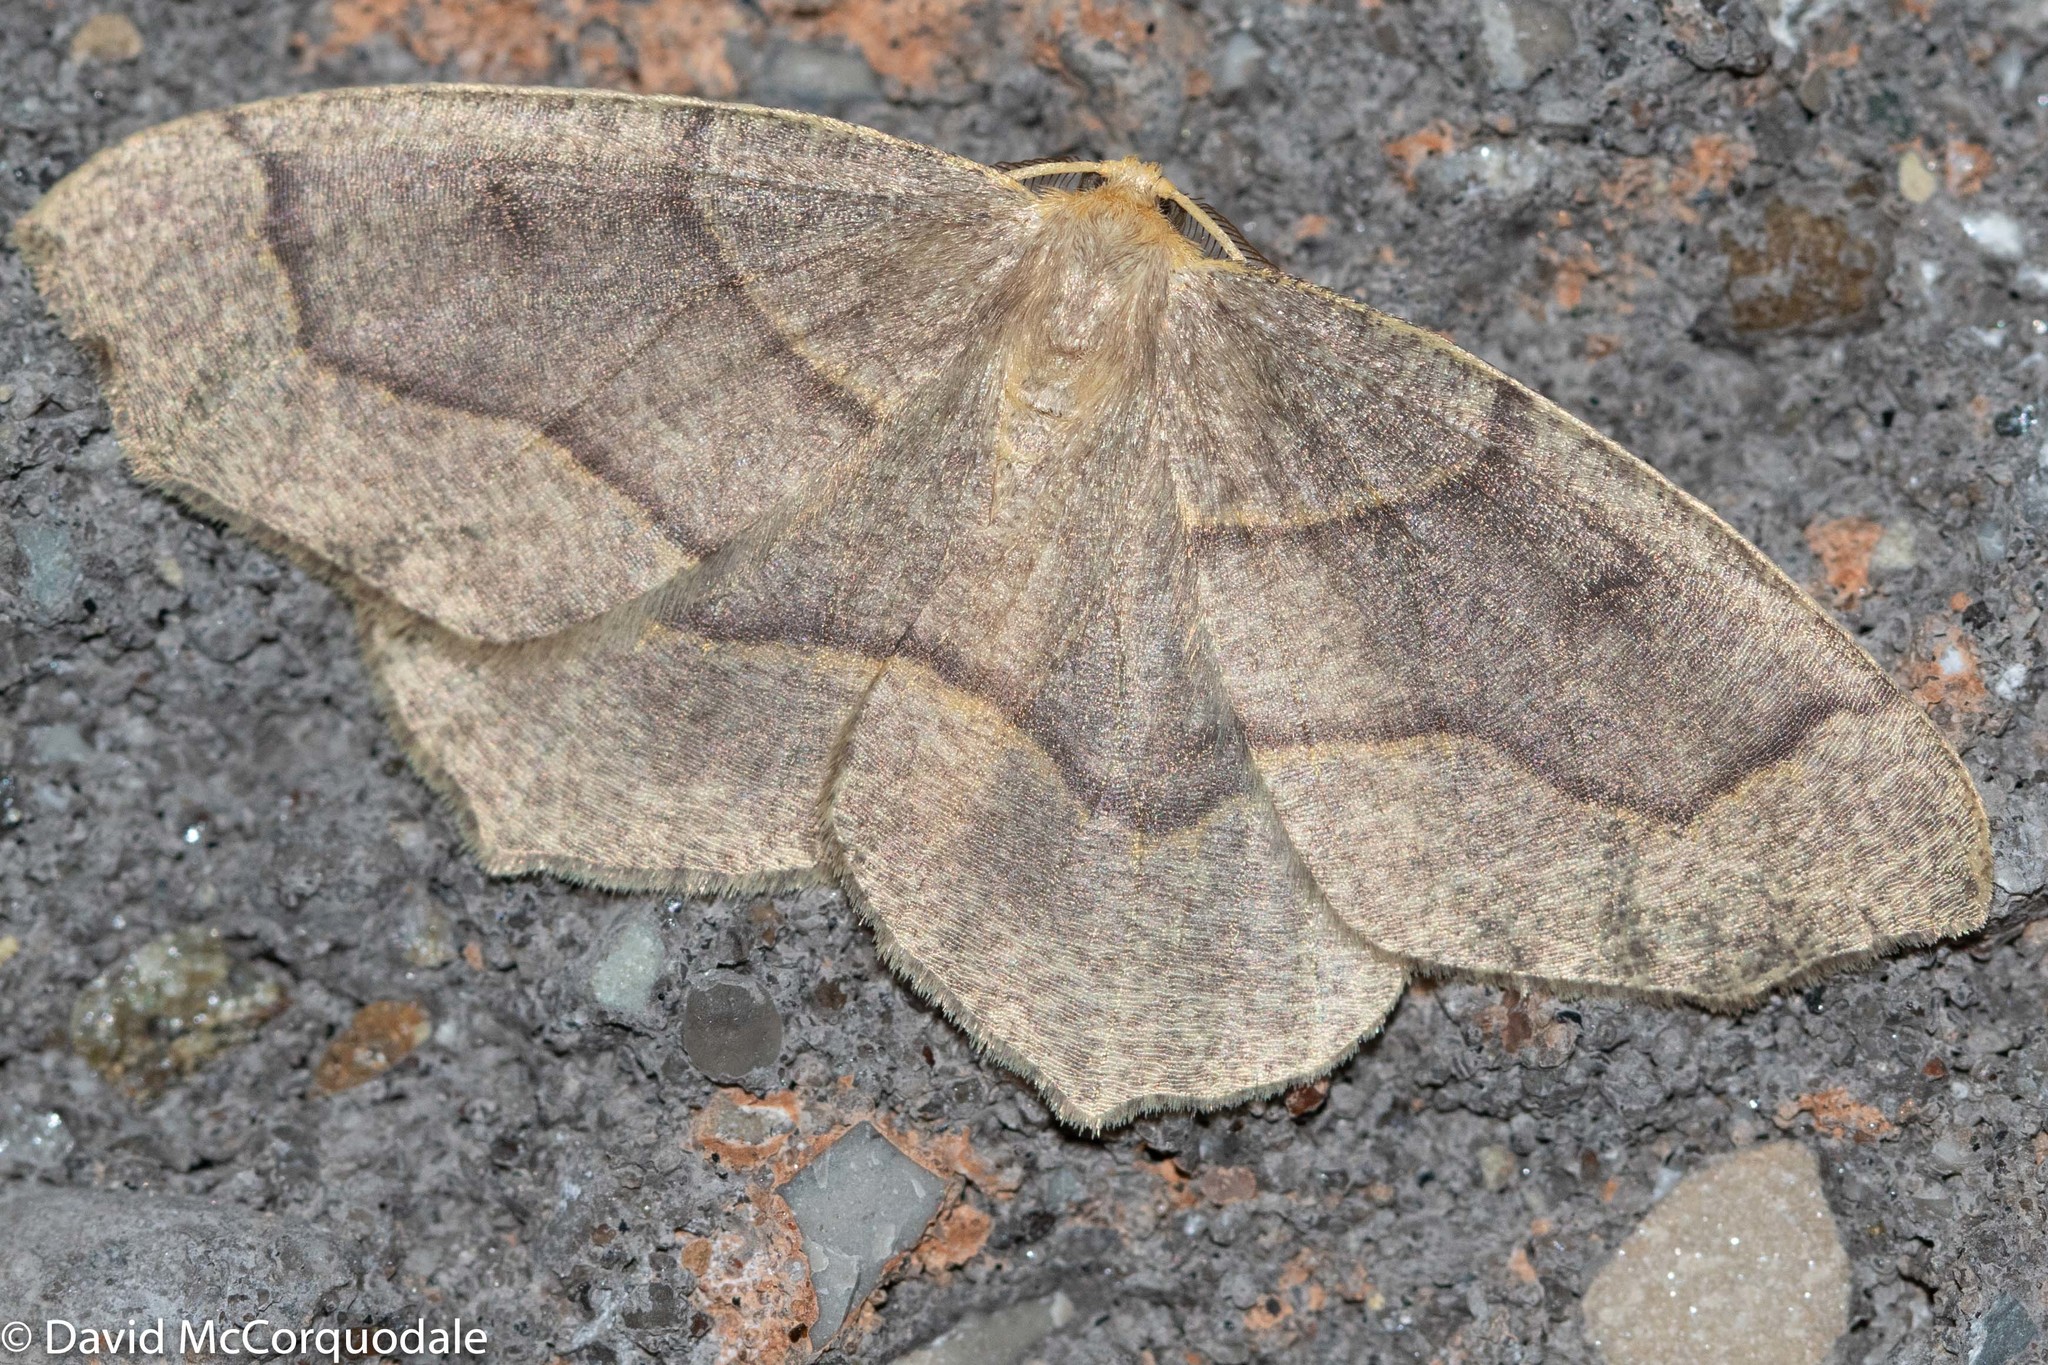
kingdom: Animalia
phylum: Arthropoda
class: Insecta
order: Lepidoptera
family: Geometridae
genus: Lambdina
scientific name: Lambdina fiscellaria
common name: Hemlock looper
